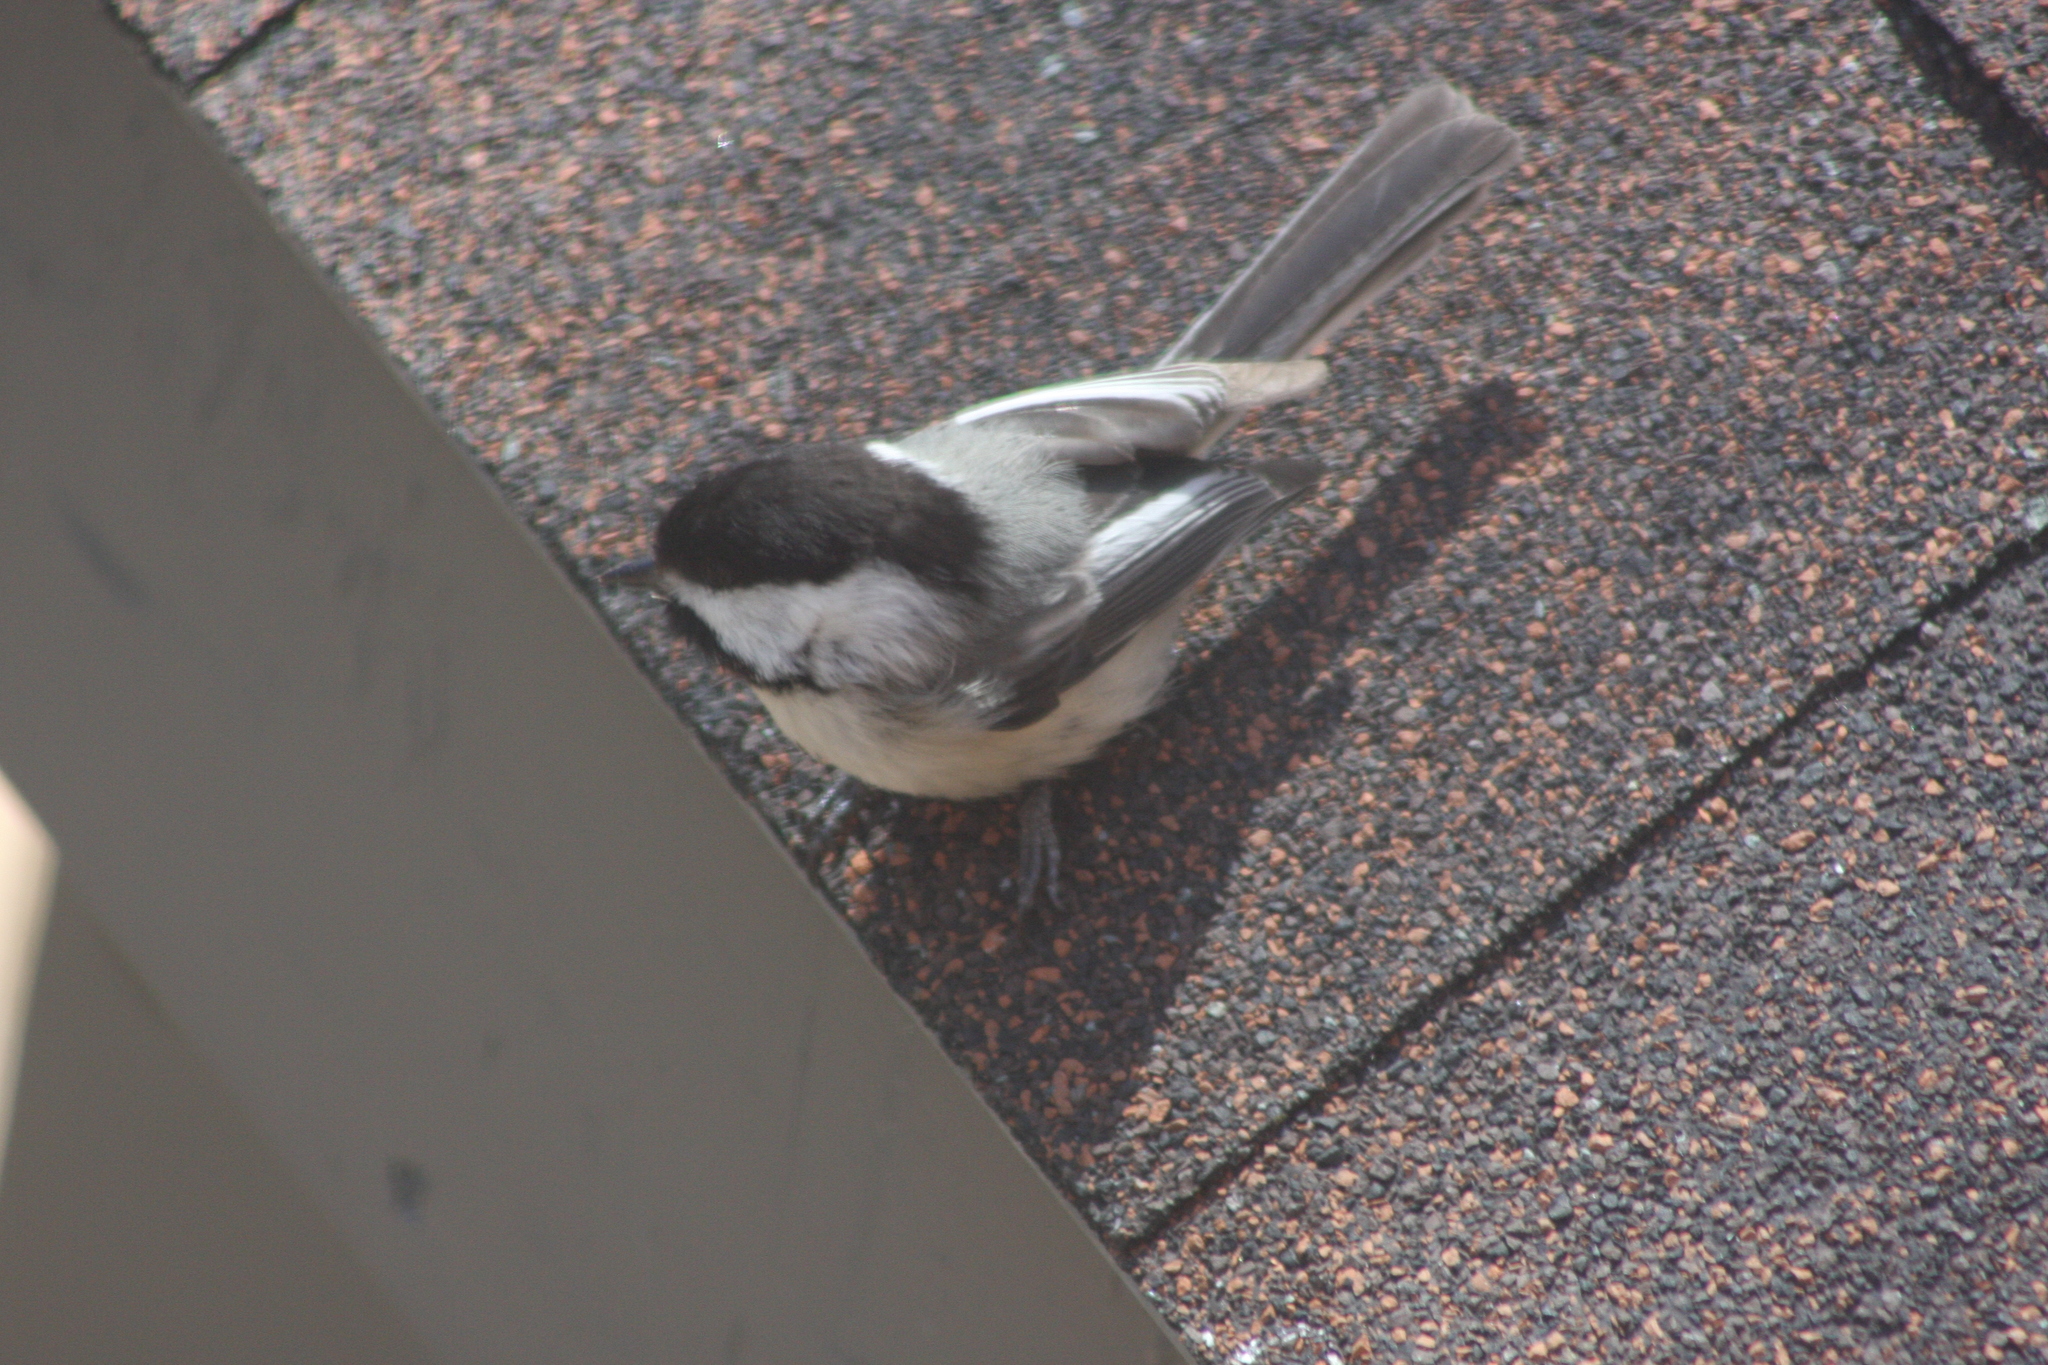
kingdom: Animalia
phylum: Chordata
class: Aves
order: Passeriformes
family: Paridae
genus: Poecile
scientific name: Poecile atricapillus
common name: Black-capped chickadee
